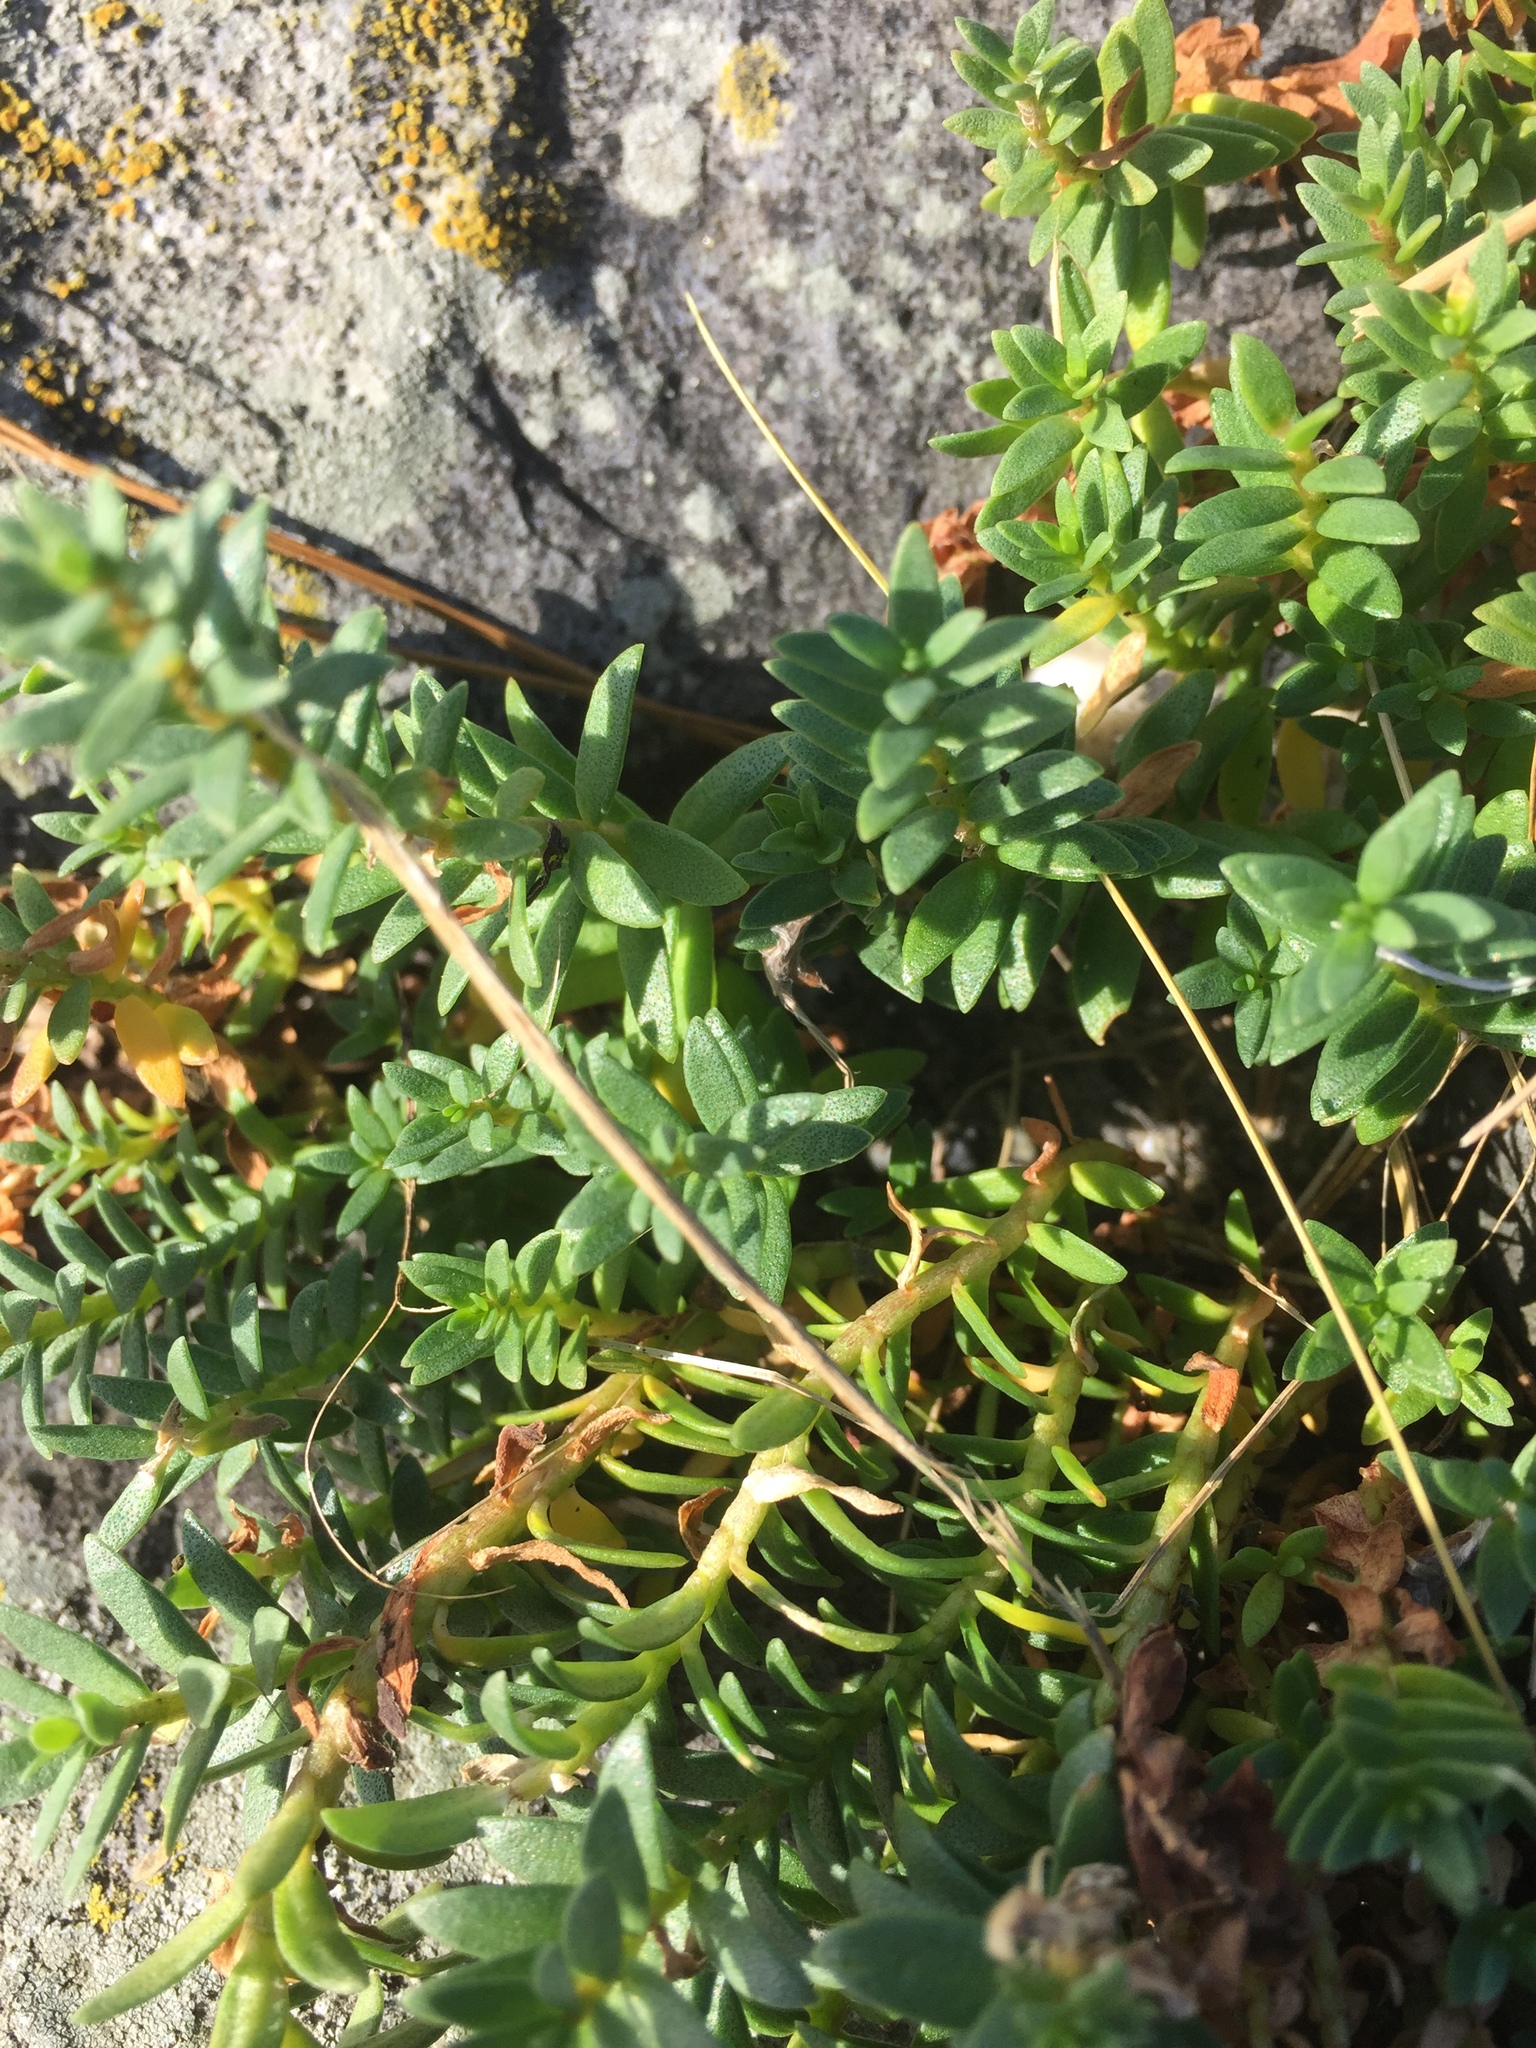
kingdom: Plantae
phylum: Tracheophyta
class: Magnoliopsida
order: Ericales
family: Primulaceae
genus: Lysimachia
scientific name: Lysimachia maritima
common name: Sea milkwort
